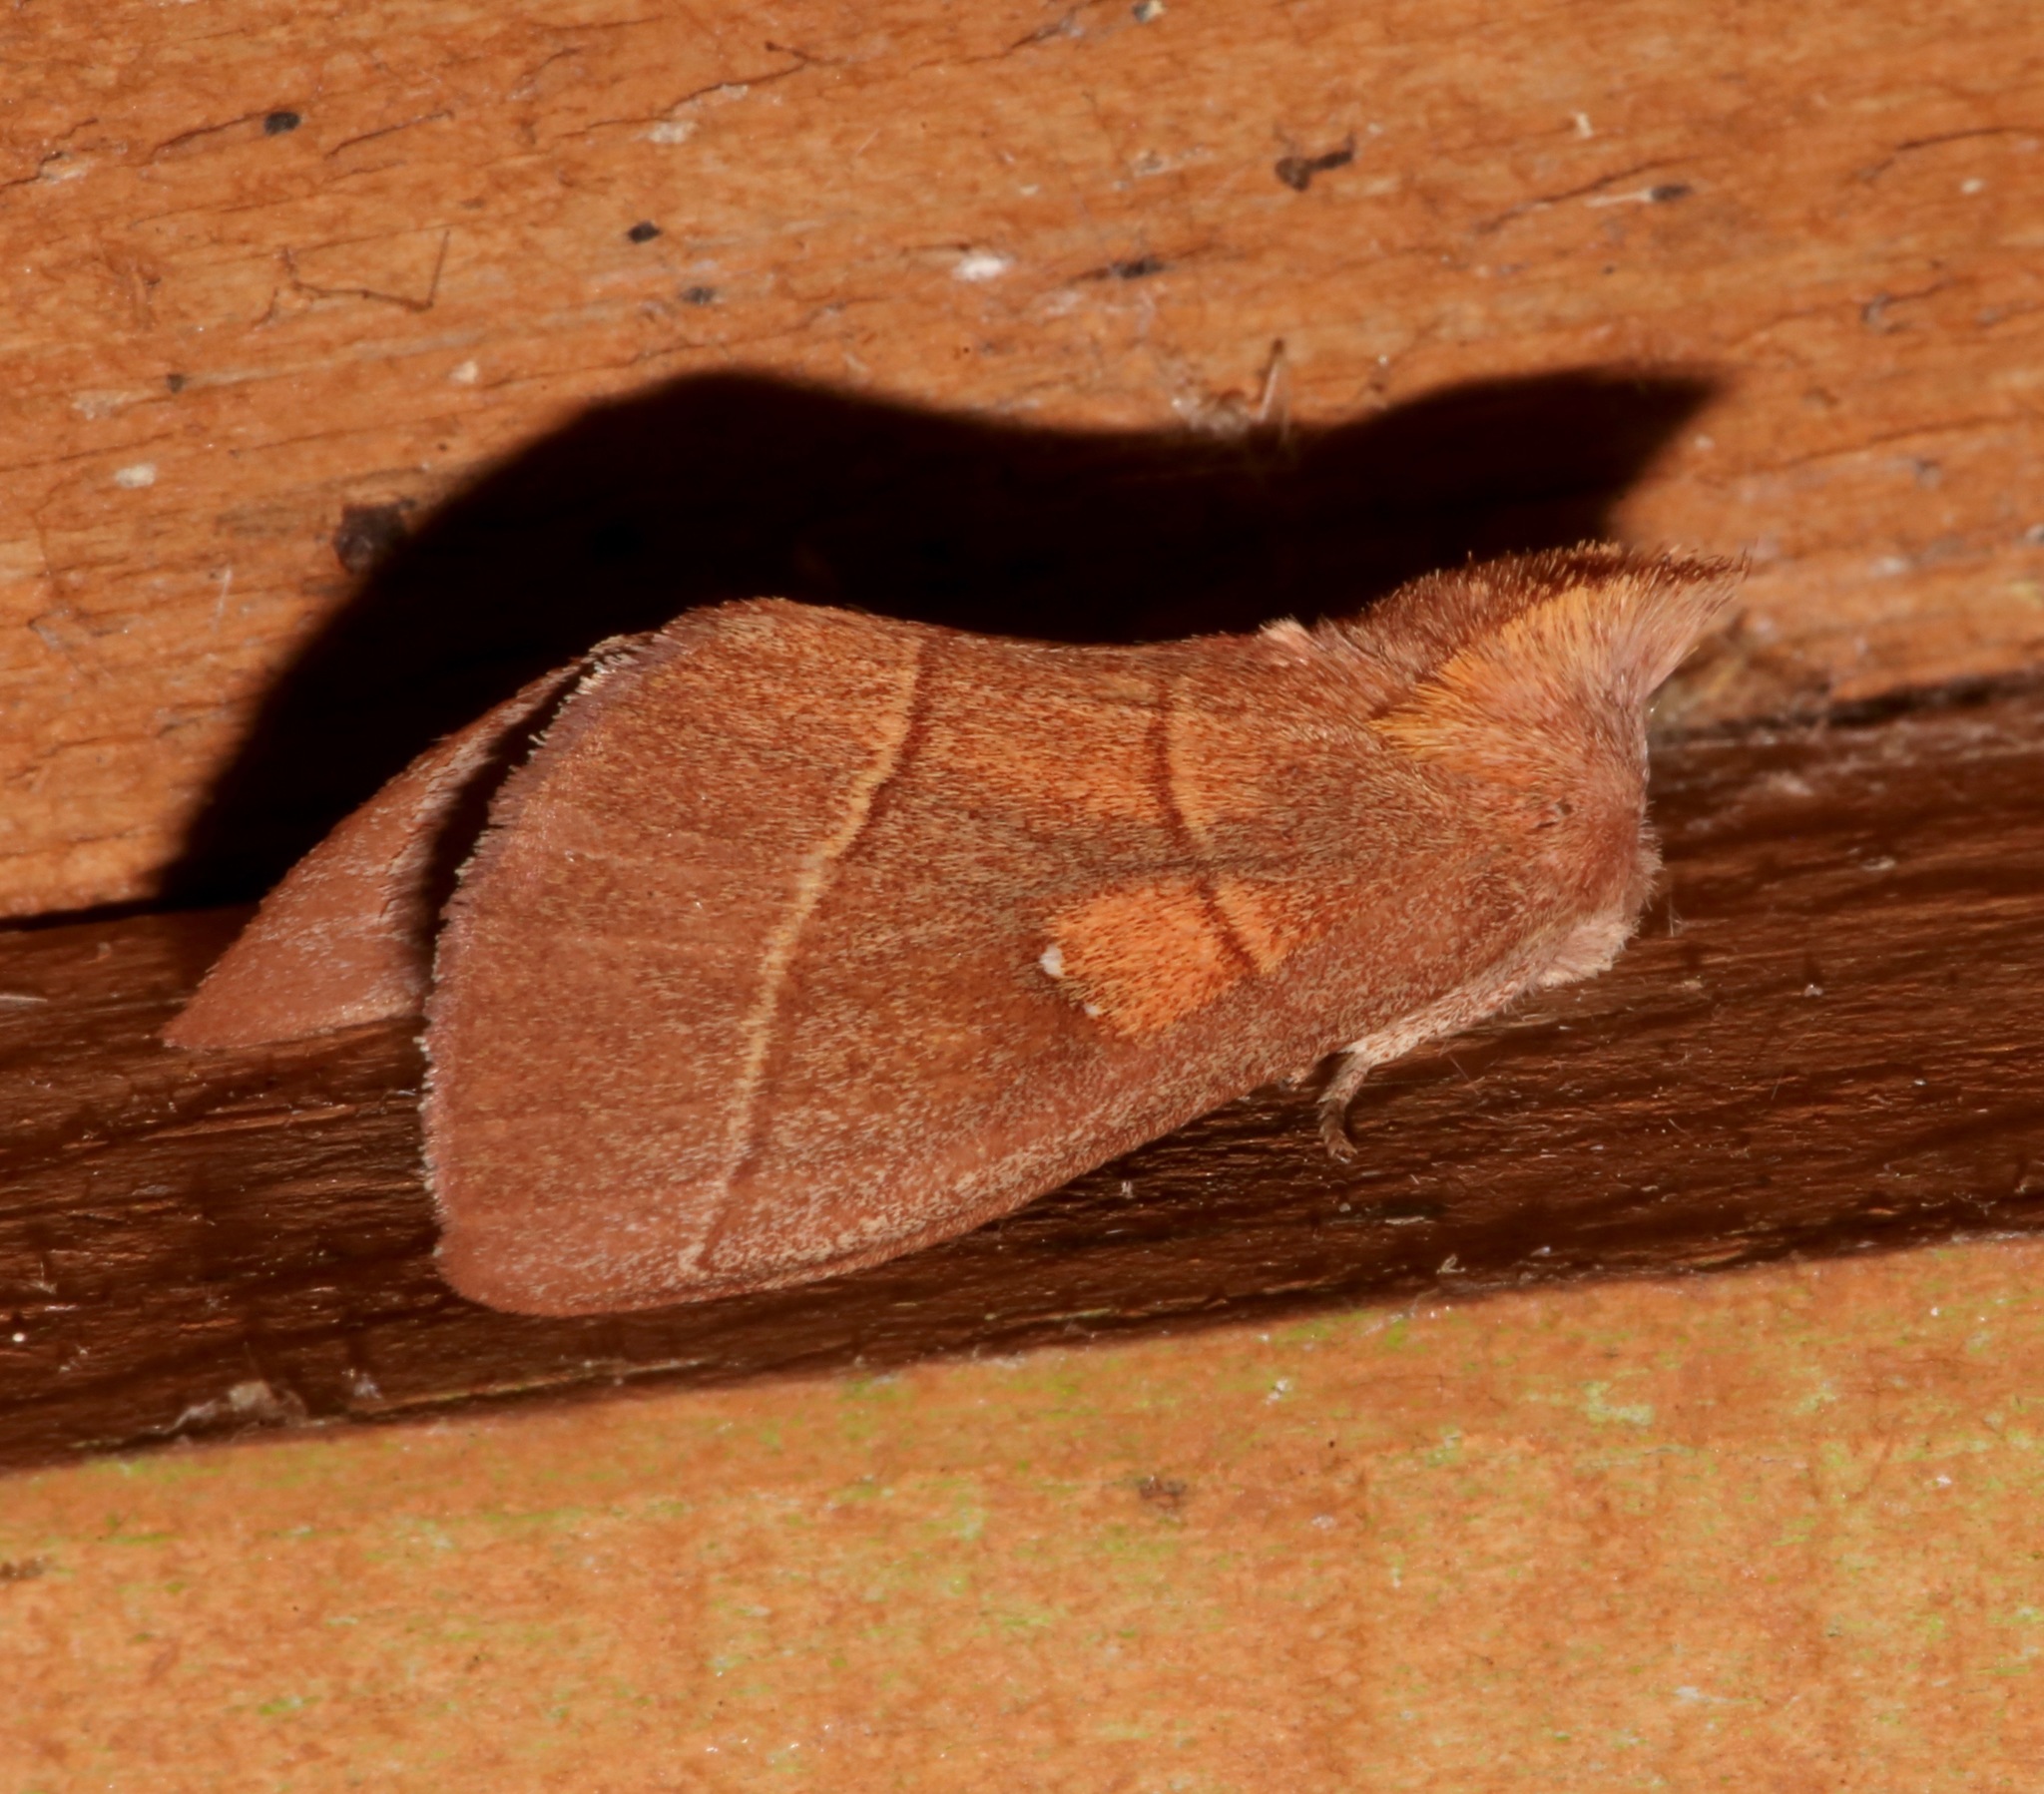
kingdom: Animalia
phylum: Arthropoda
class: Insecta
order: Lepidoptera
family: Notodontidae
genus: Nadata
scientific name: Nadata gibbosa
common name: White-dotted prominent
